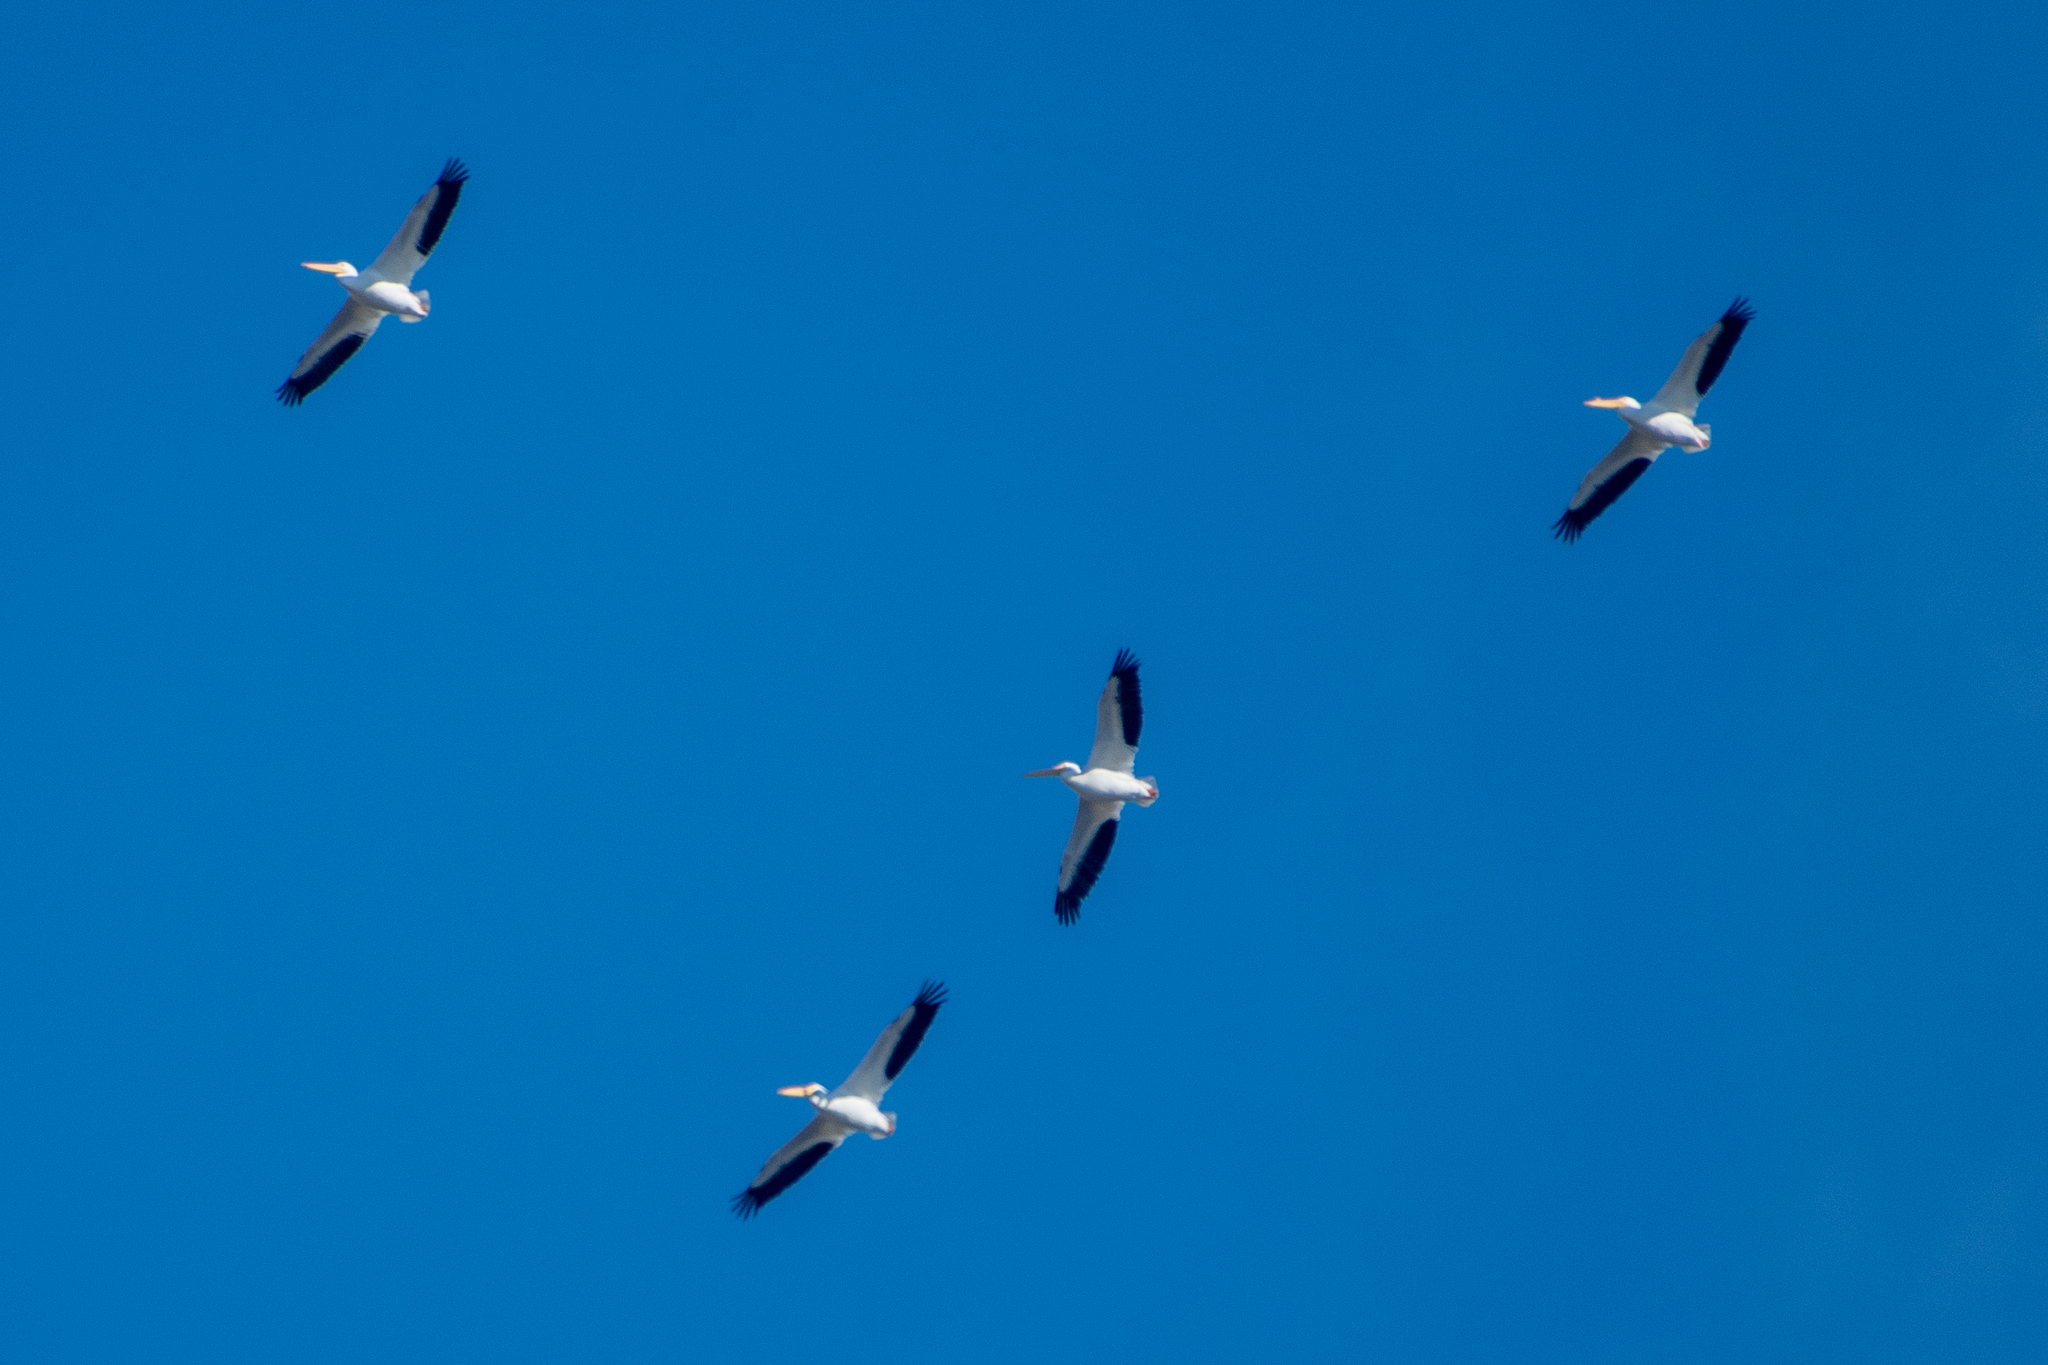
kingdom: Animalia
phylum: Chordata
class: Aves
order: Pelecaniformes
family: Pelecanidae
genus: Pelecanus
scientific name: Pelecanus erythrorhynchos
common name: American white pelican
